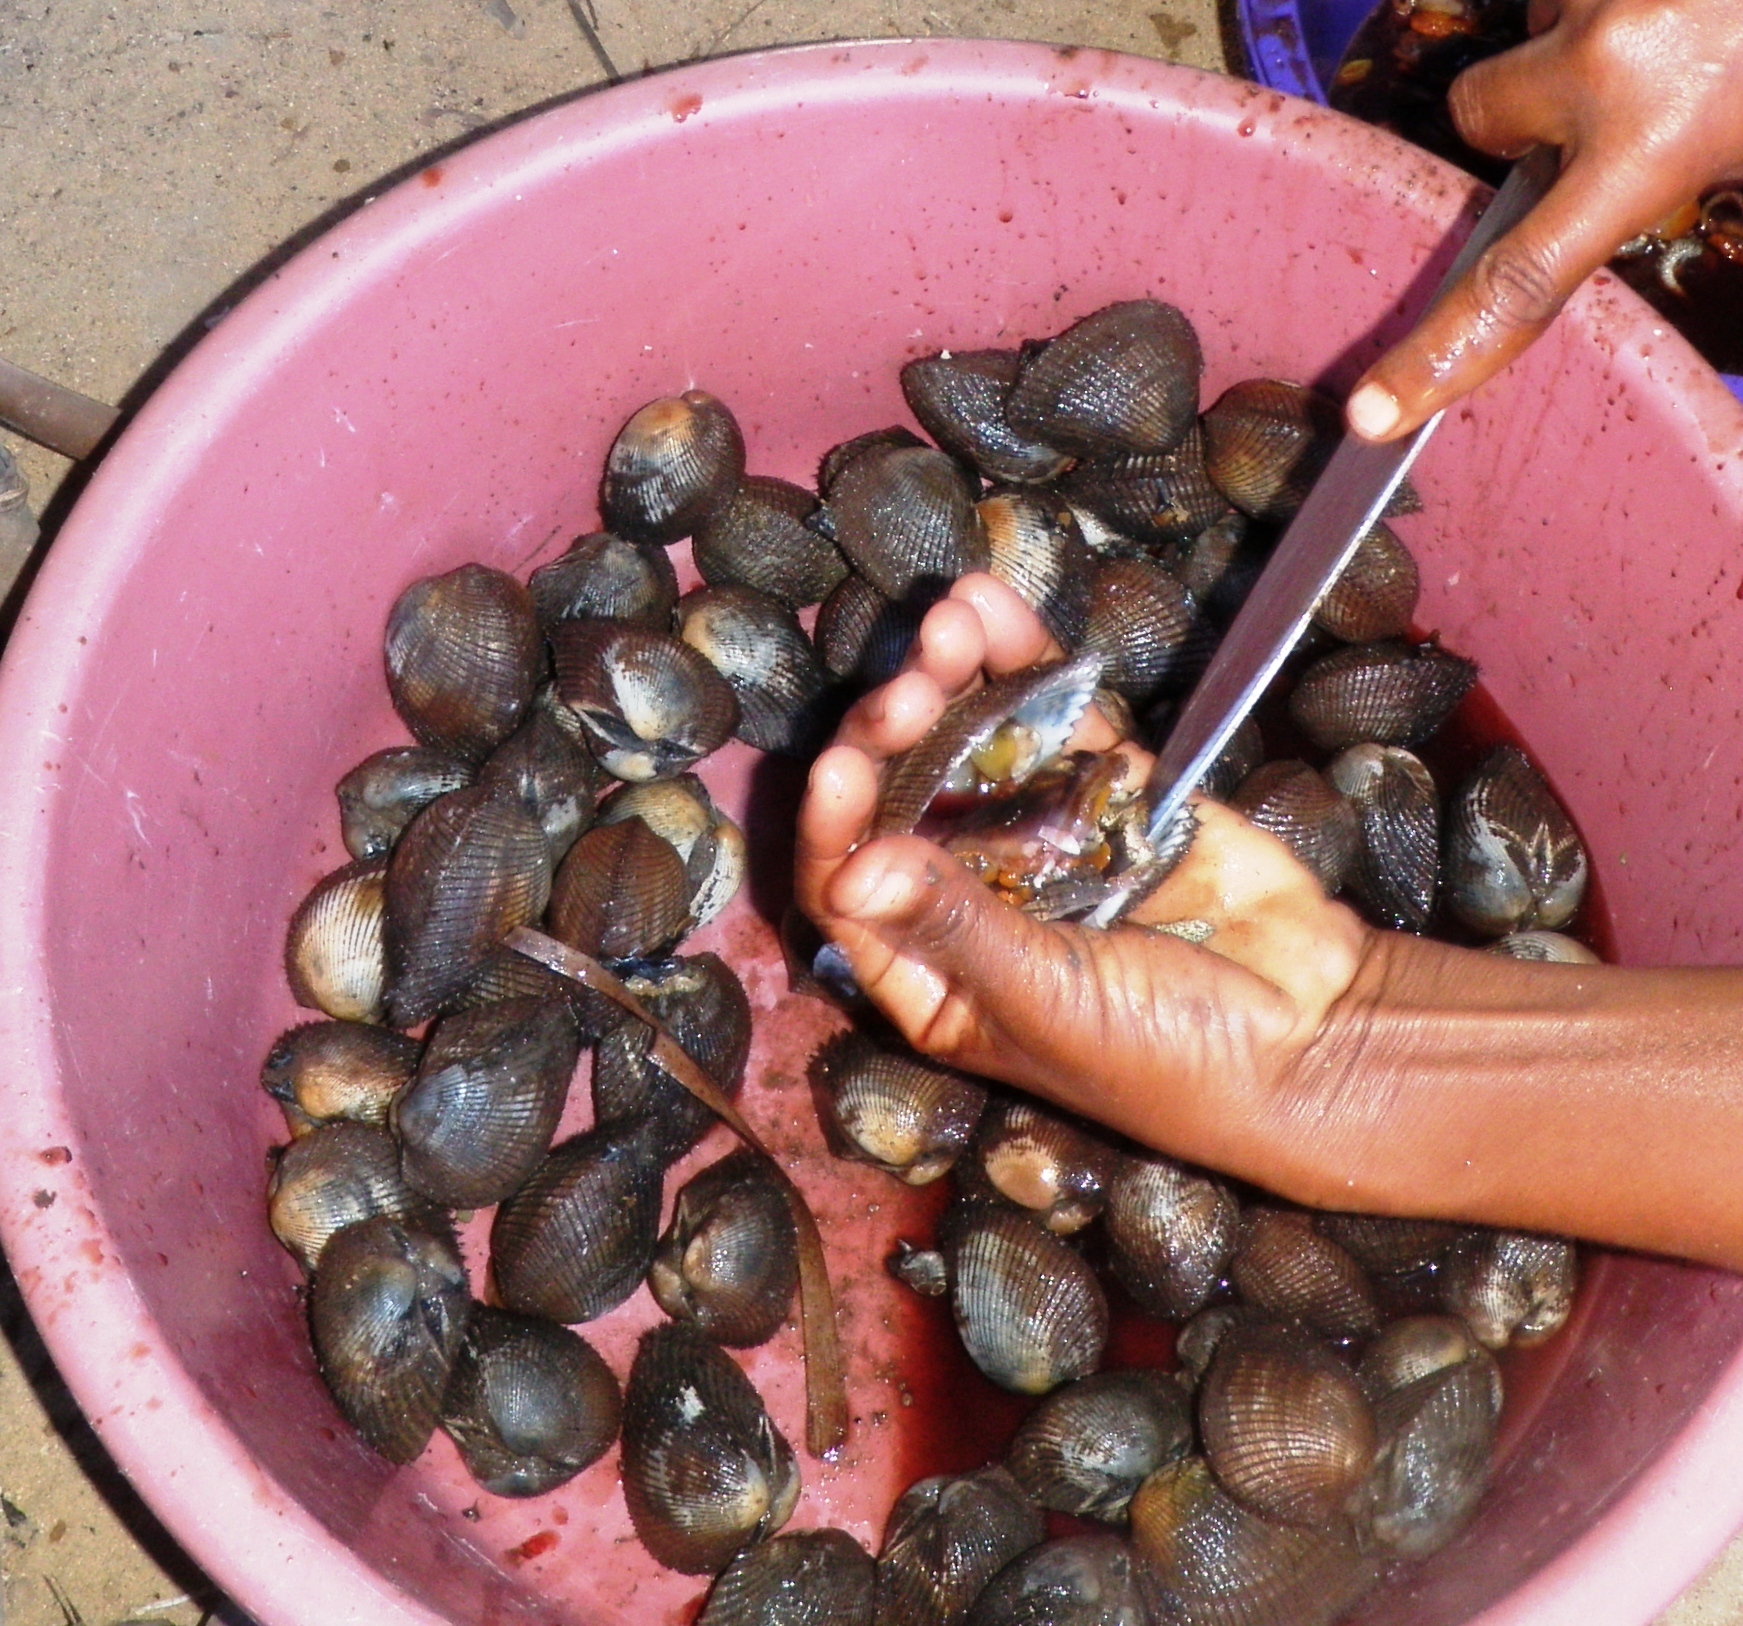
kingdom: Animalia
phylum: Mollusca
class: Bivalvia
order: Arcida
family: Arcidae
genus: Anadara
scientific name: Anadara antiquata
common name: Antique ark
